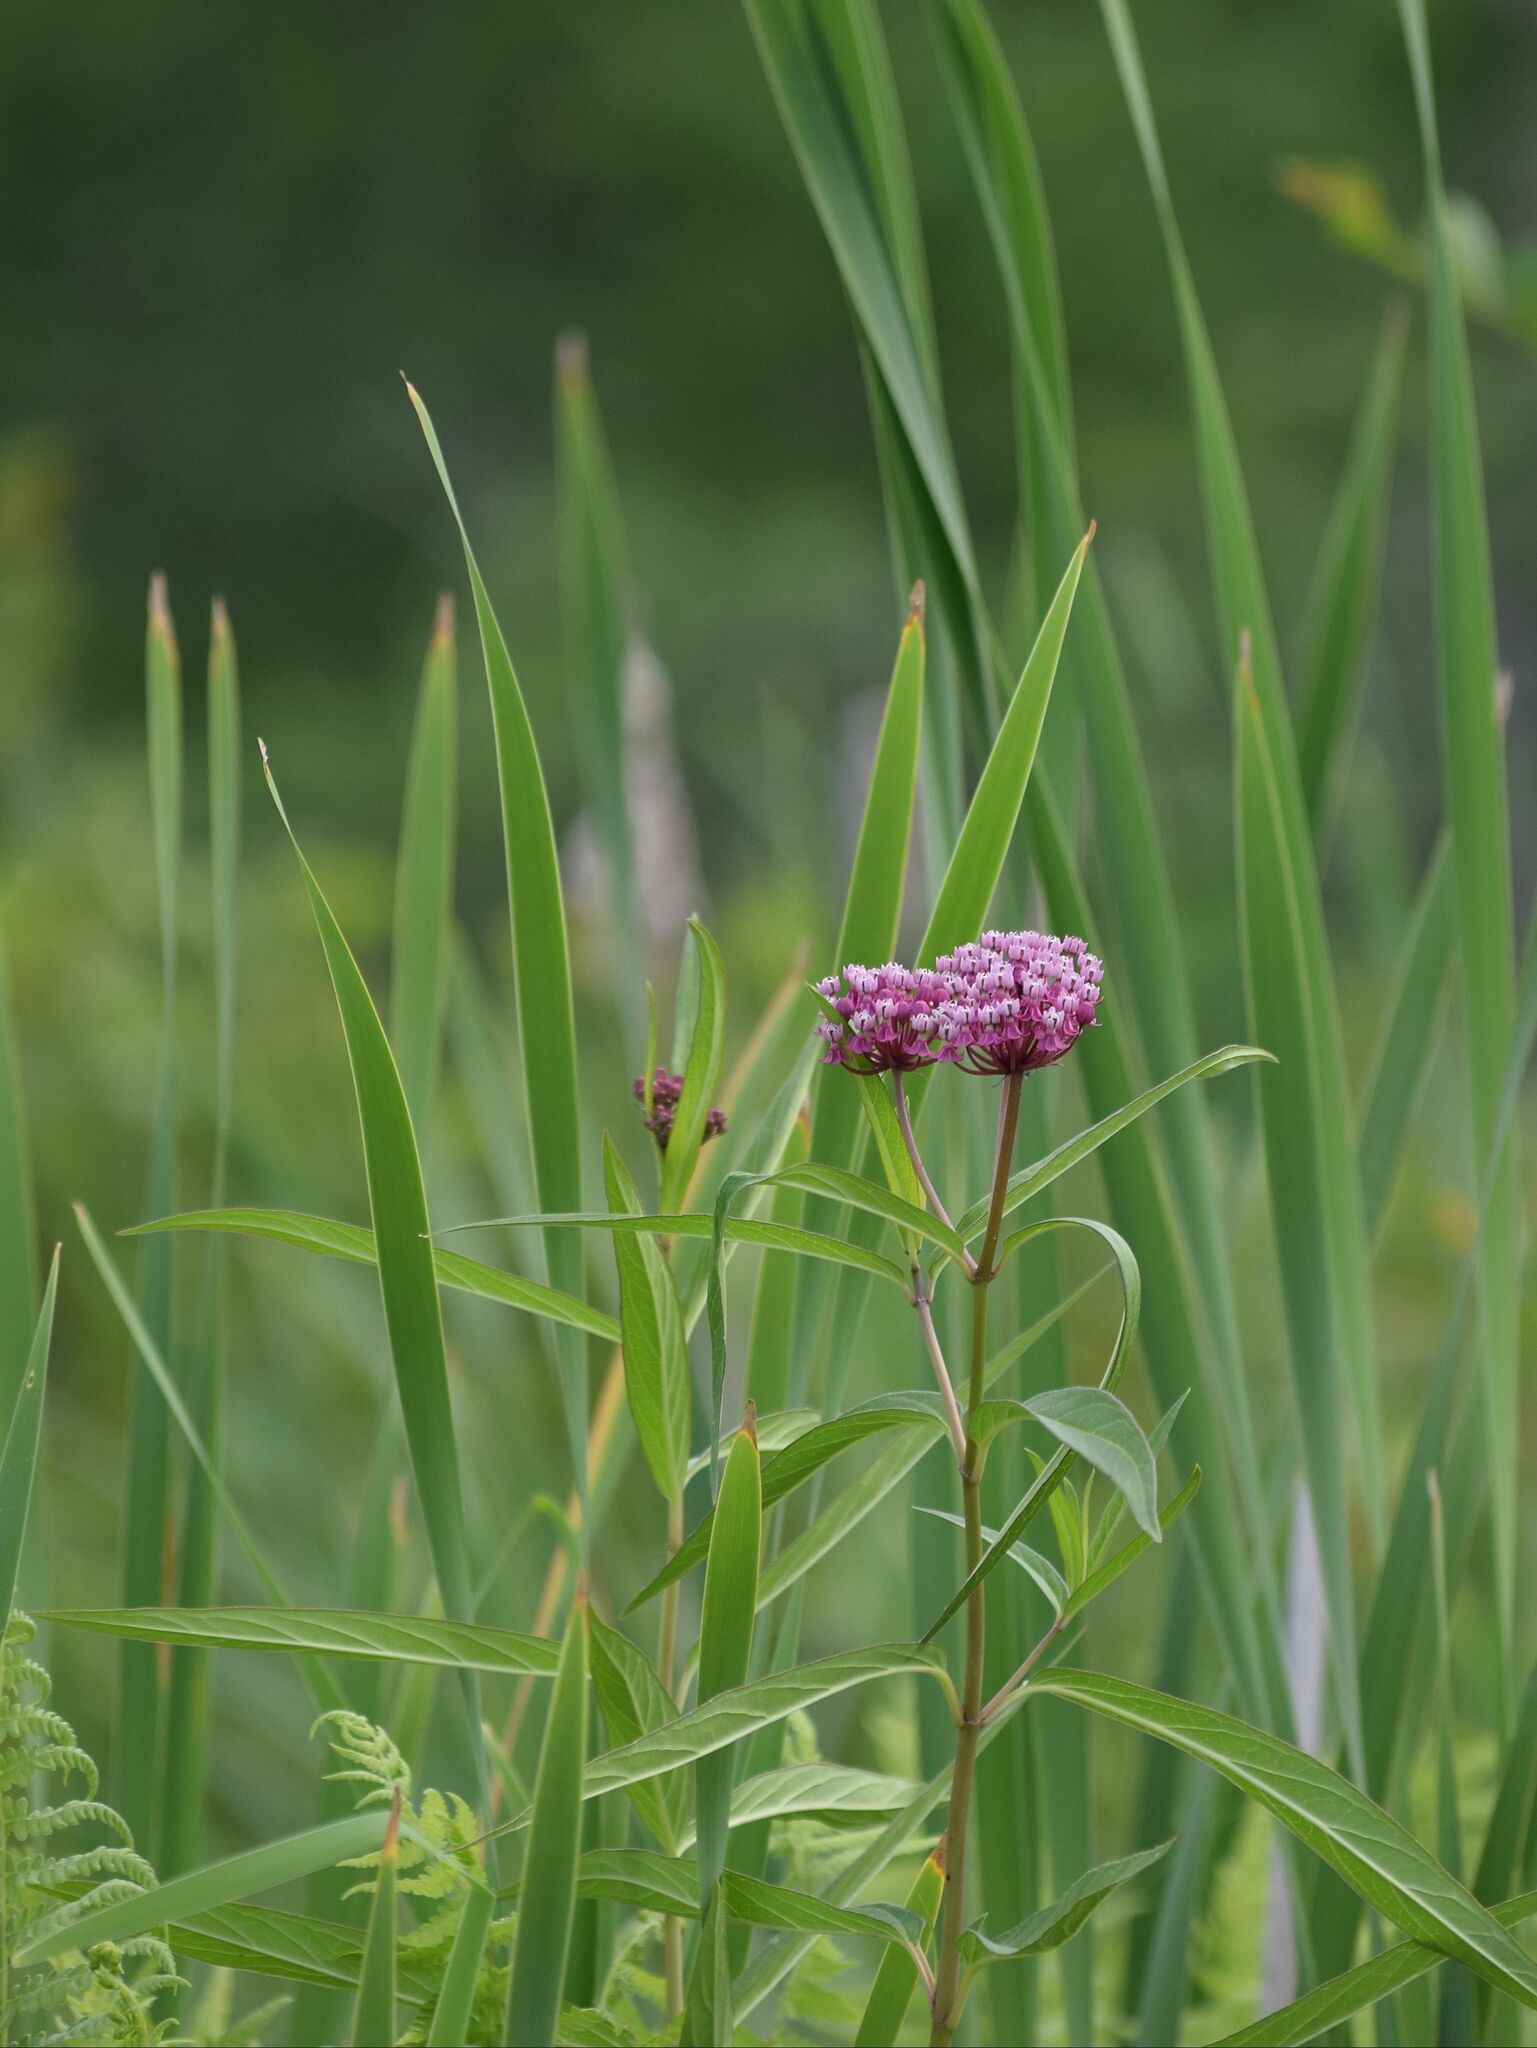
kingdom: Plantae
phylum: Tracheophyta
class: Magnoliopsida
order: Gentianales
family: Apocynaceae
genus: Asclepias
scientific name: Asclepias incarnata
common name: Swamp milkweed
